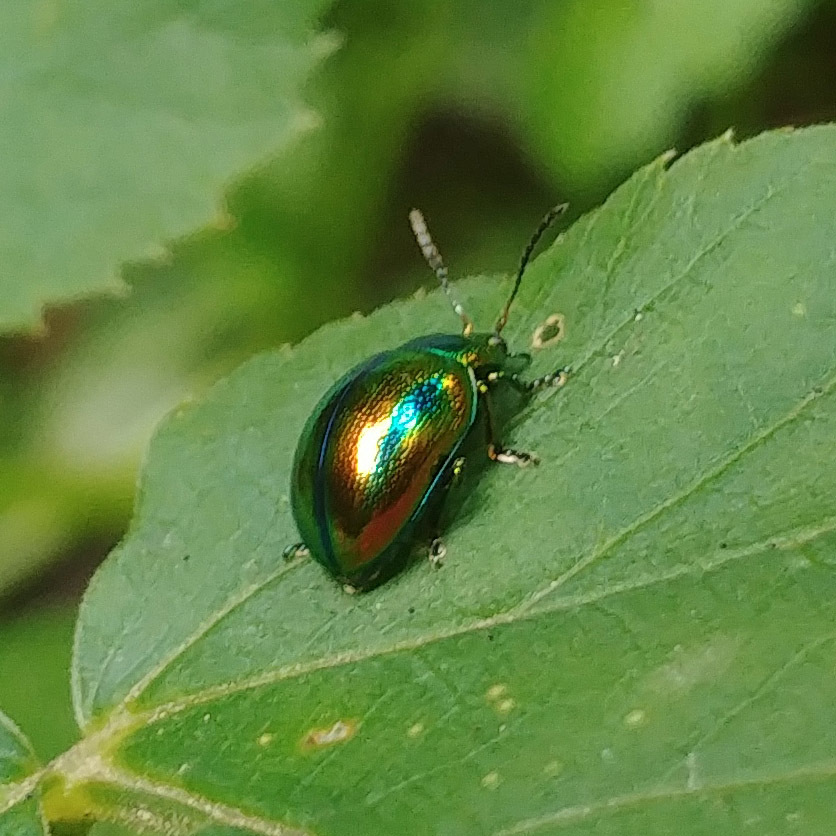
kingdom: Animalia
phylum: Arthropoda
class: Insecta
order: Coleoptera
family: Chrysomelidae
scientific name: Chrysomelidae
